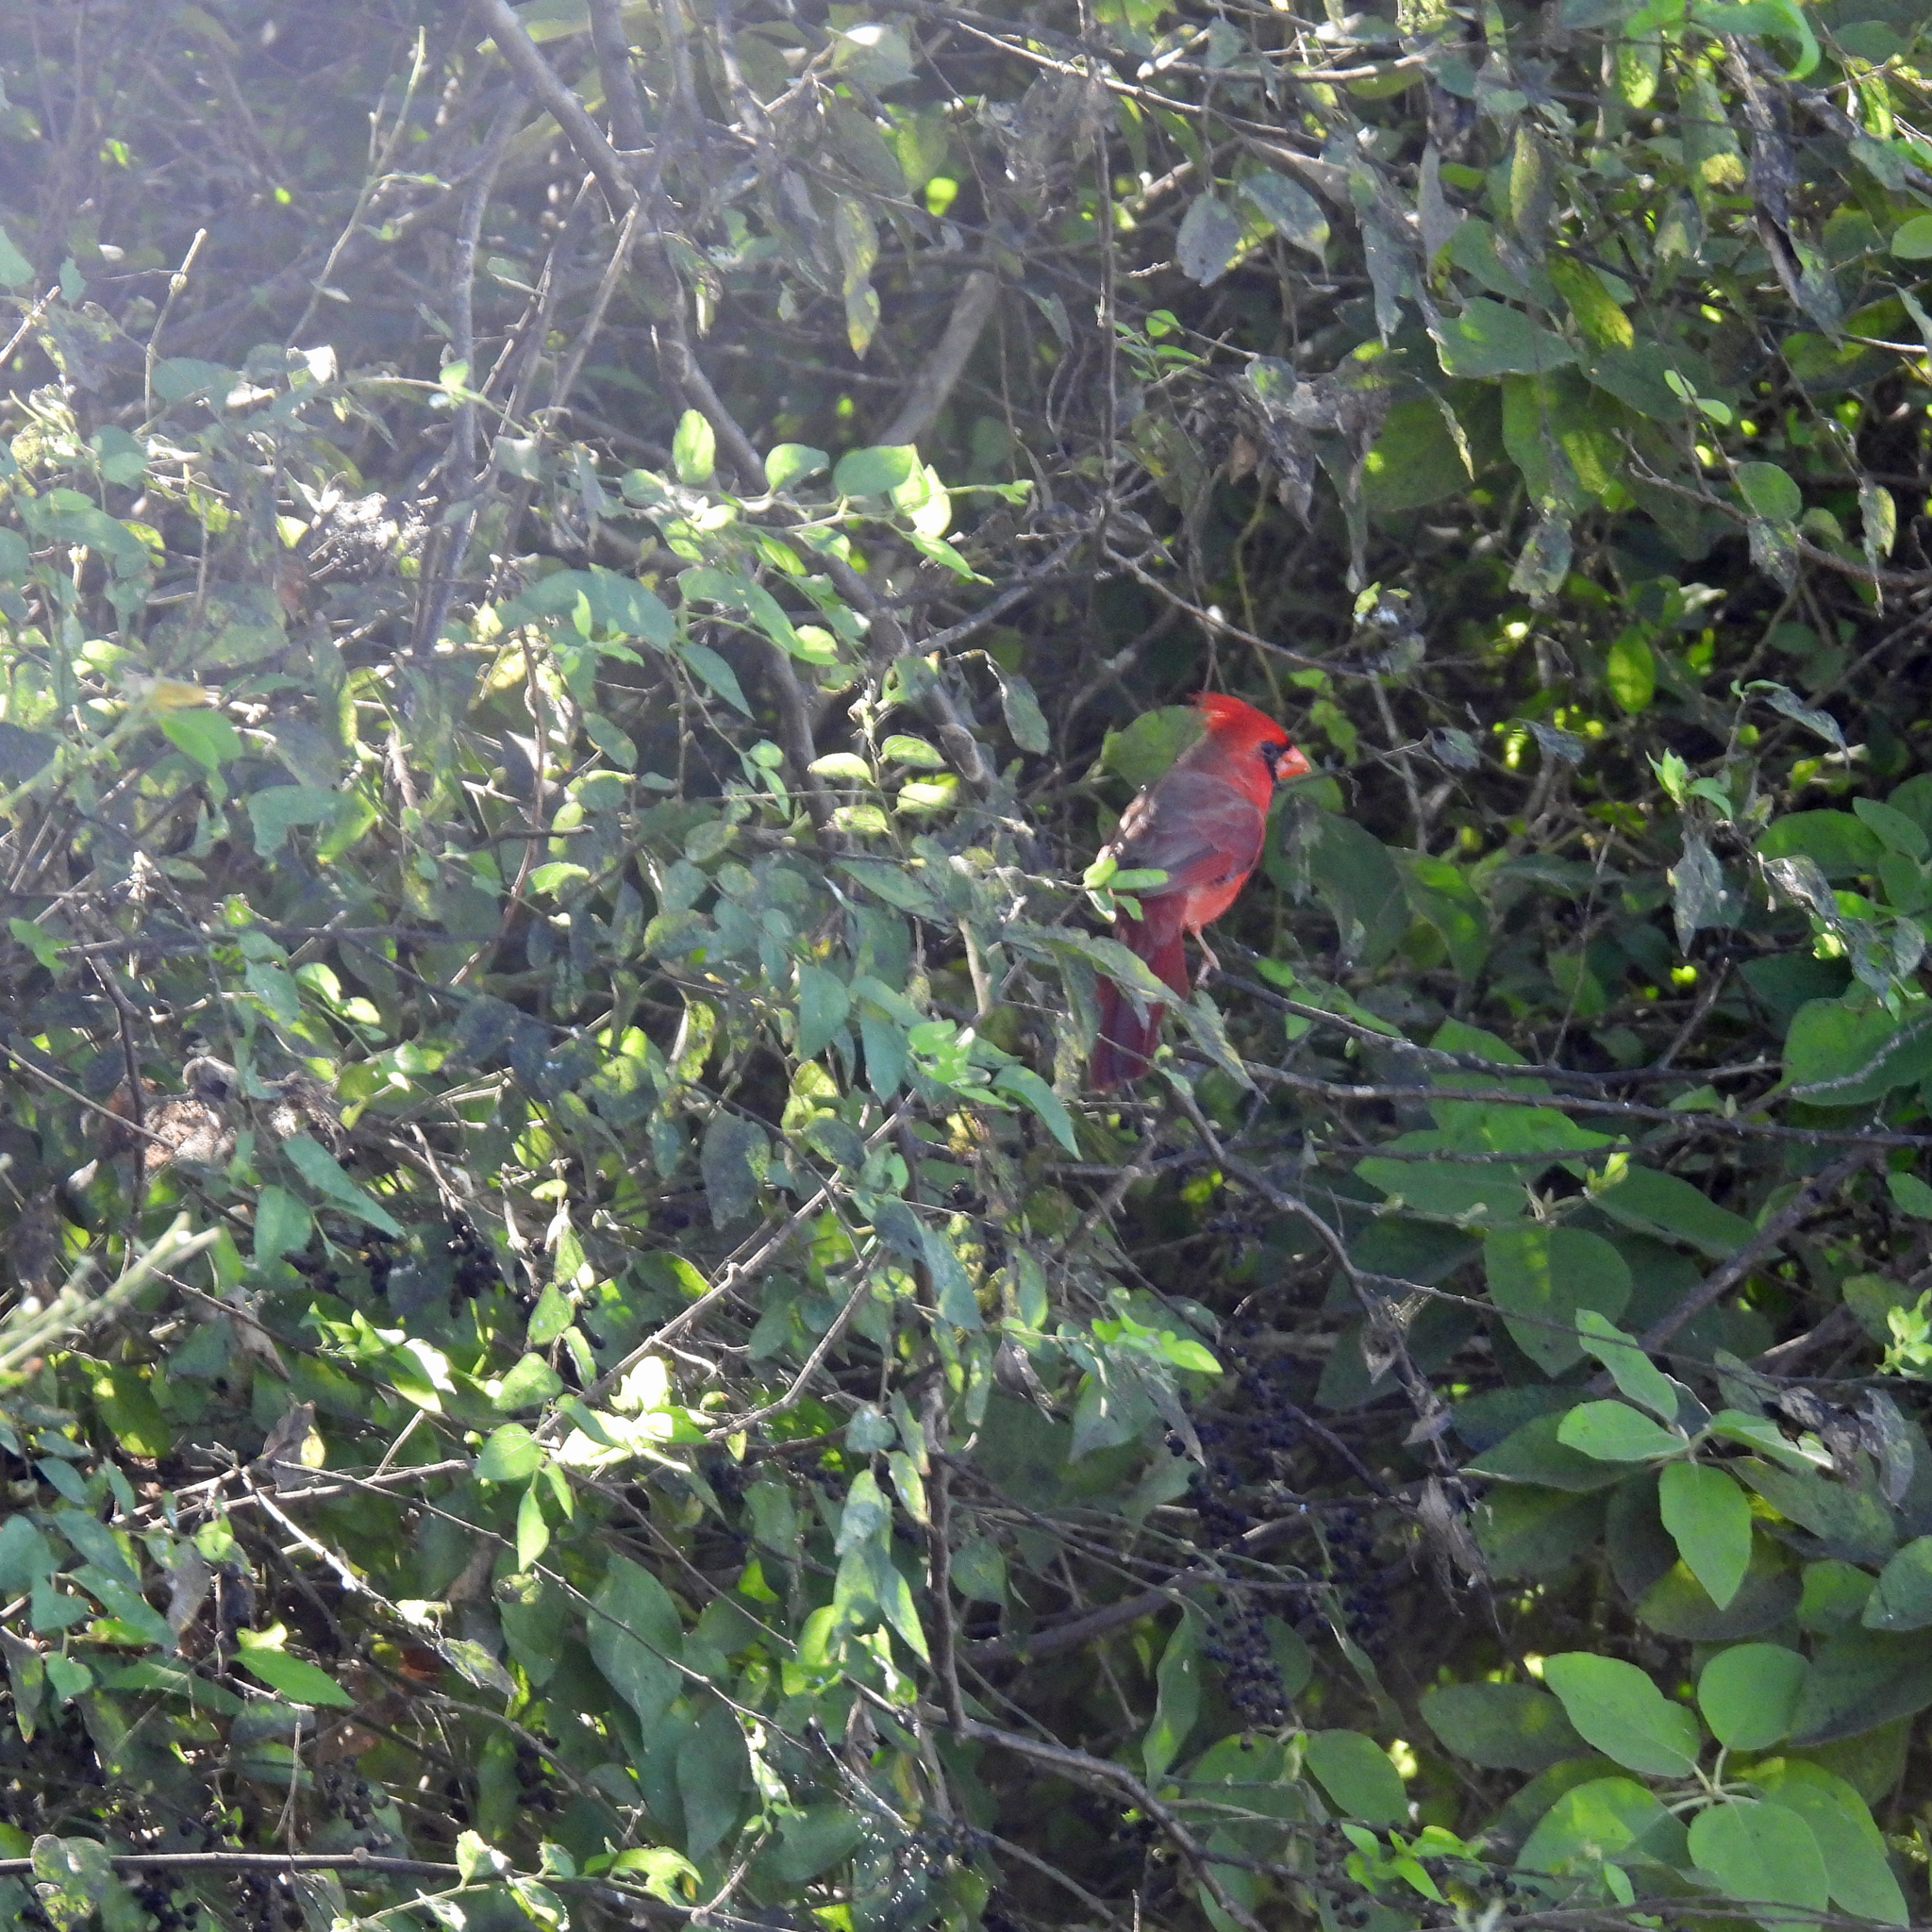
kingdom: Animalia
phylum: Chordata
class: Aves
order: Passeriformes
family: Cardinalidae
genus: Cardinalis
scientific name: Cardinalis cardinalis
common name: Northern cardinal
